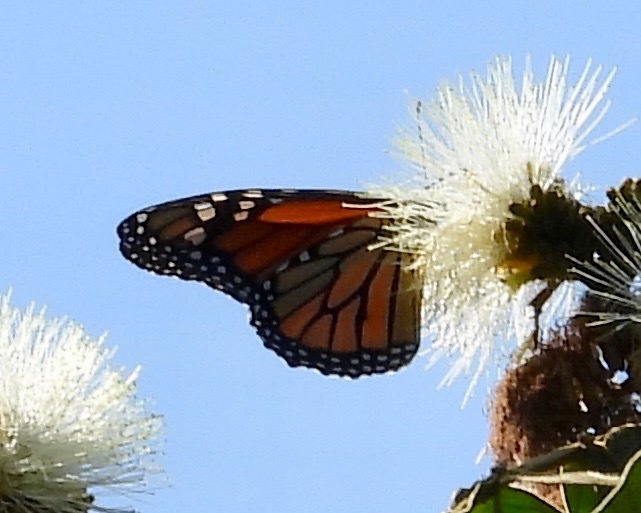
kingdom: Animalia
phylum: Arthropoda
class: Insecta
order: Lepidoptera
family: Nymphalidae
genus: Danaus
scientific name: Danaus plexippus
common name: Monarch
